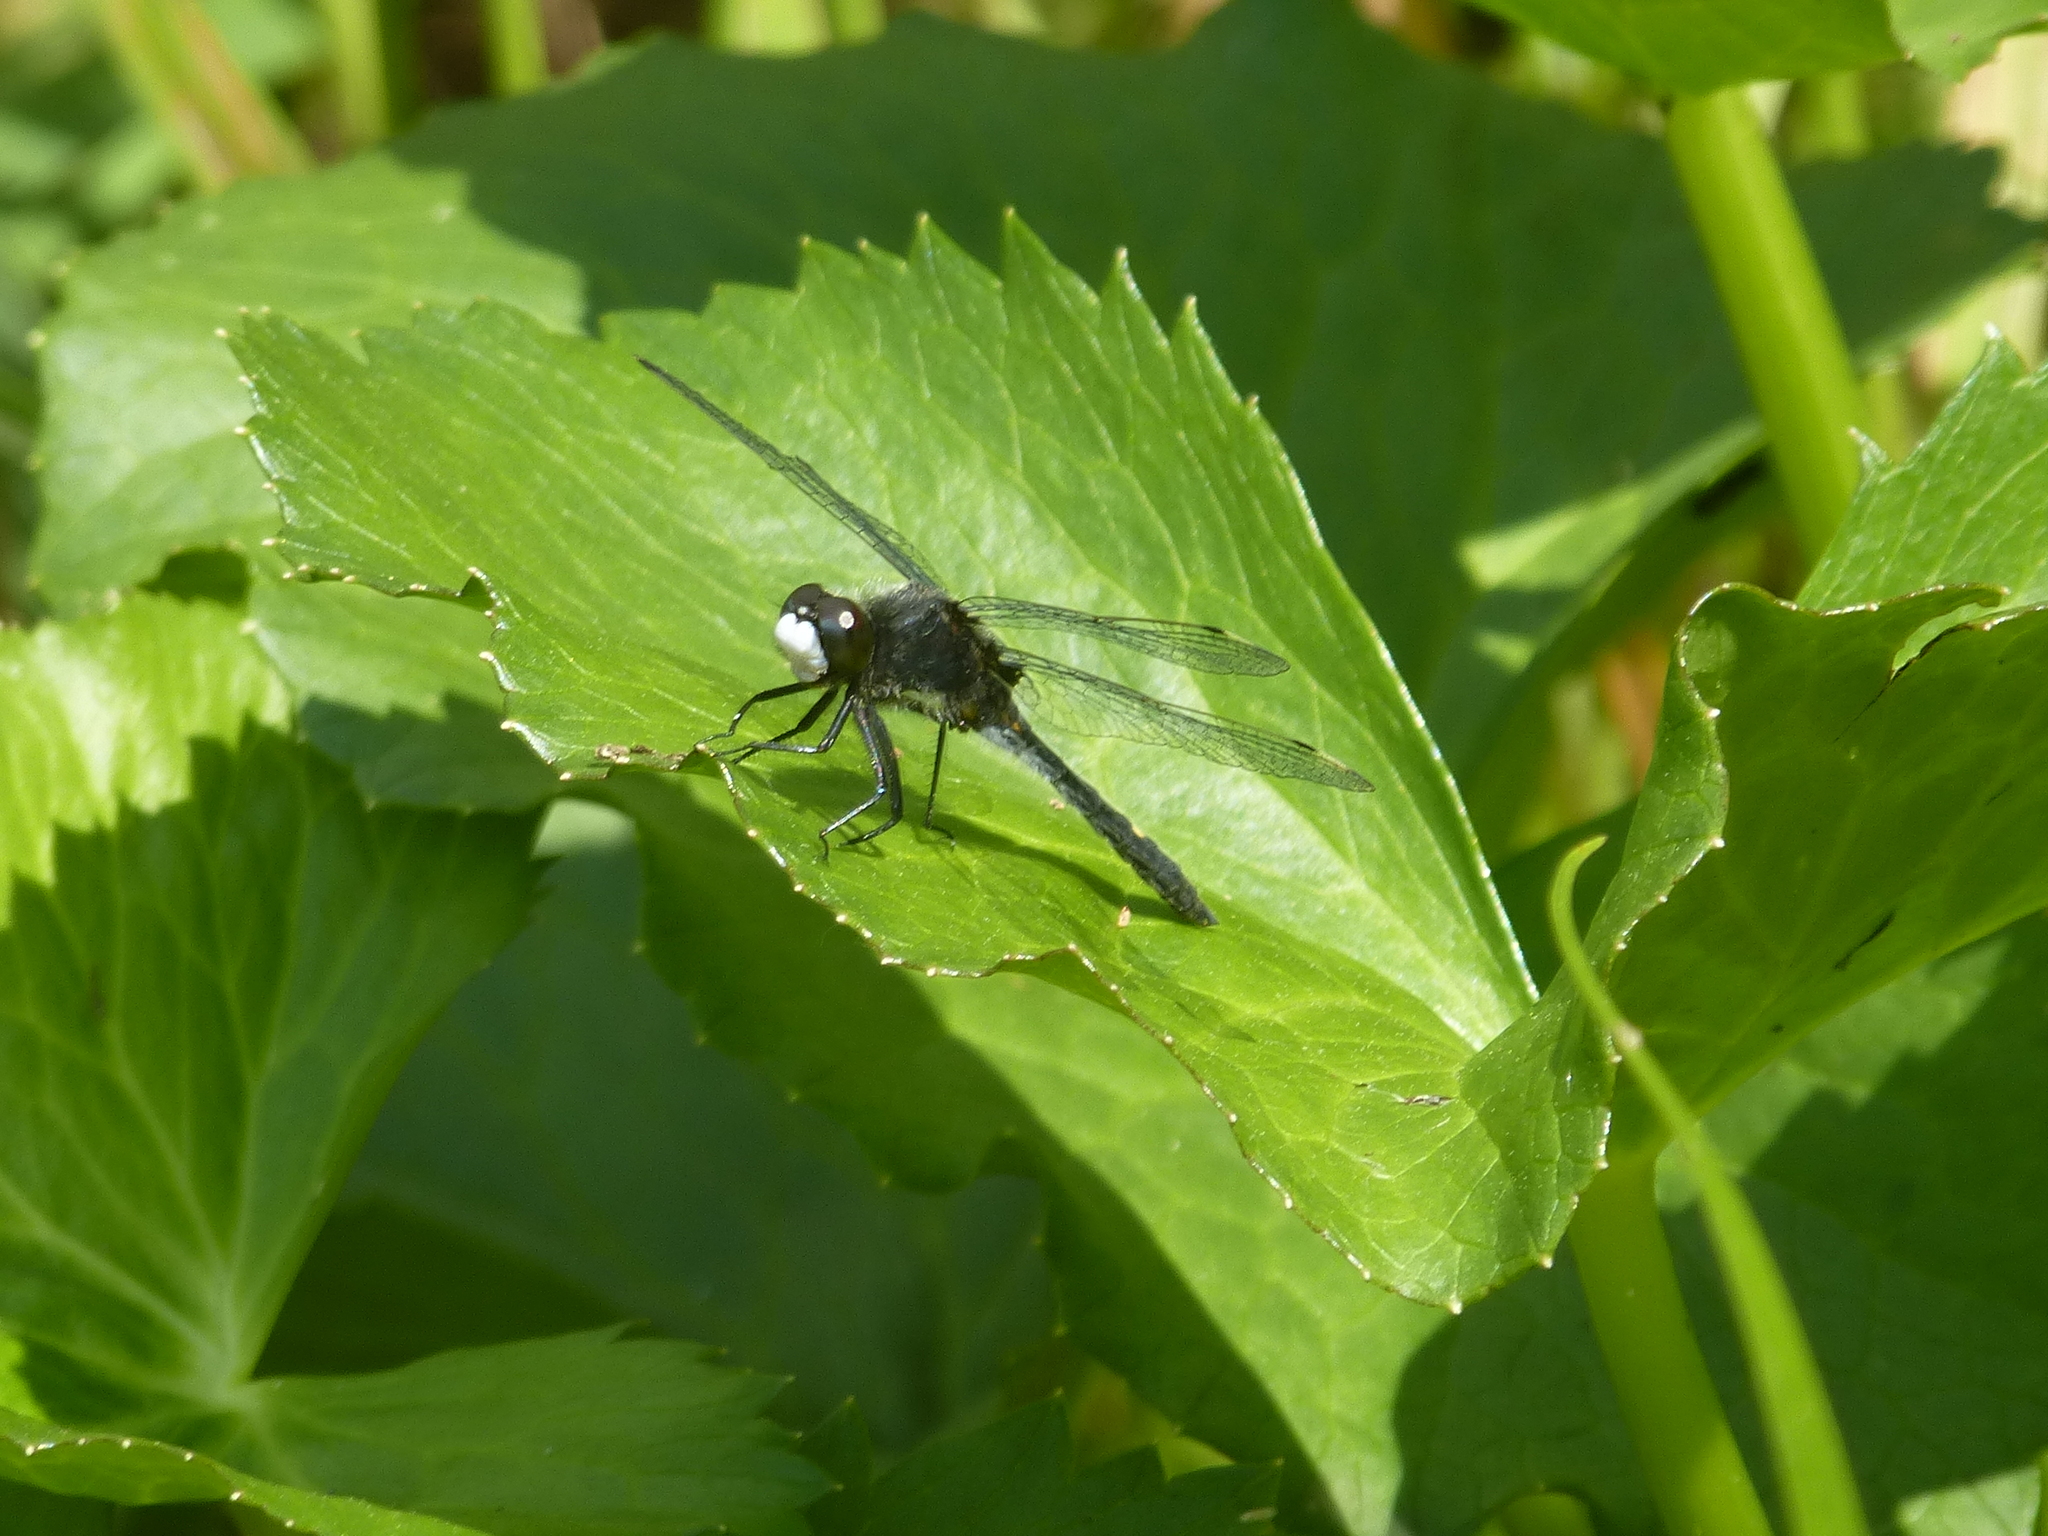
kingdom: Animalia
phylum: Arthropoda
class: Insecta
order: Odonata
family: Libellulidae
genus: Leucorrhinia
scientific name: Leucorrhinia intacta
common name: Dot-tailed whiteface
